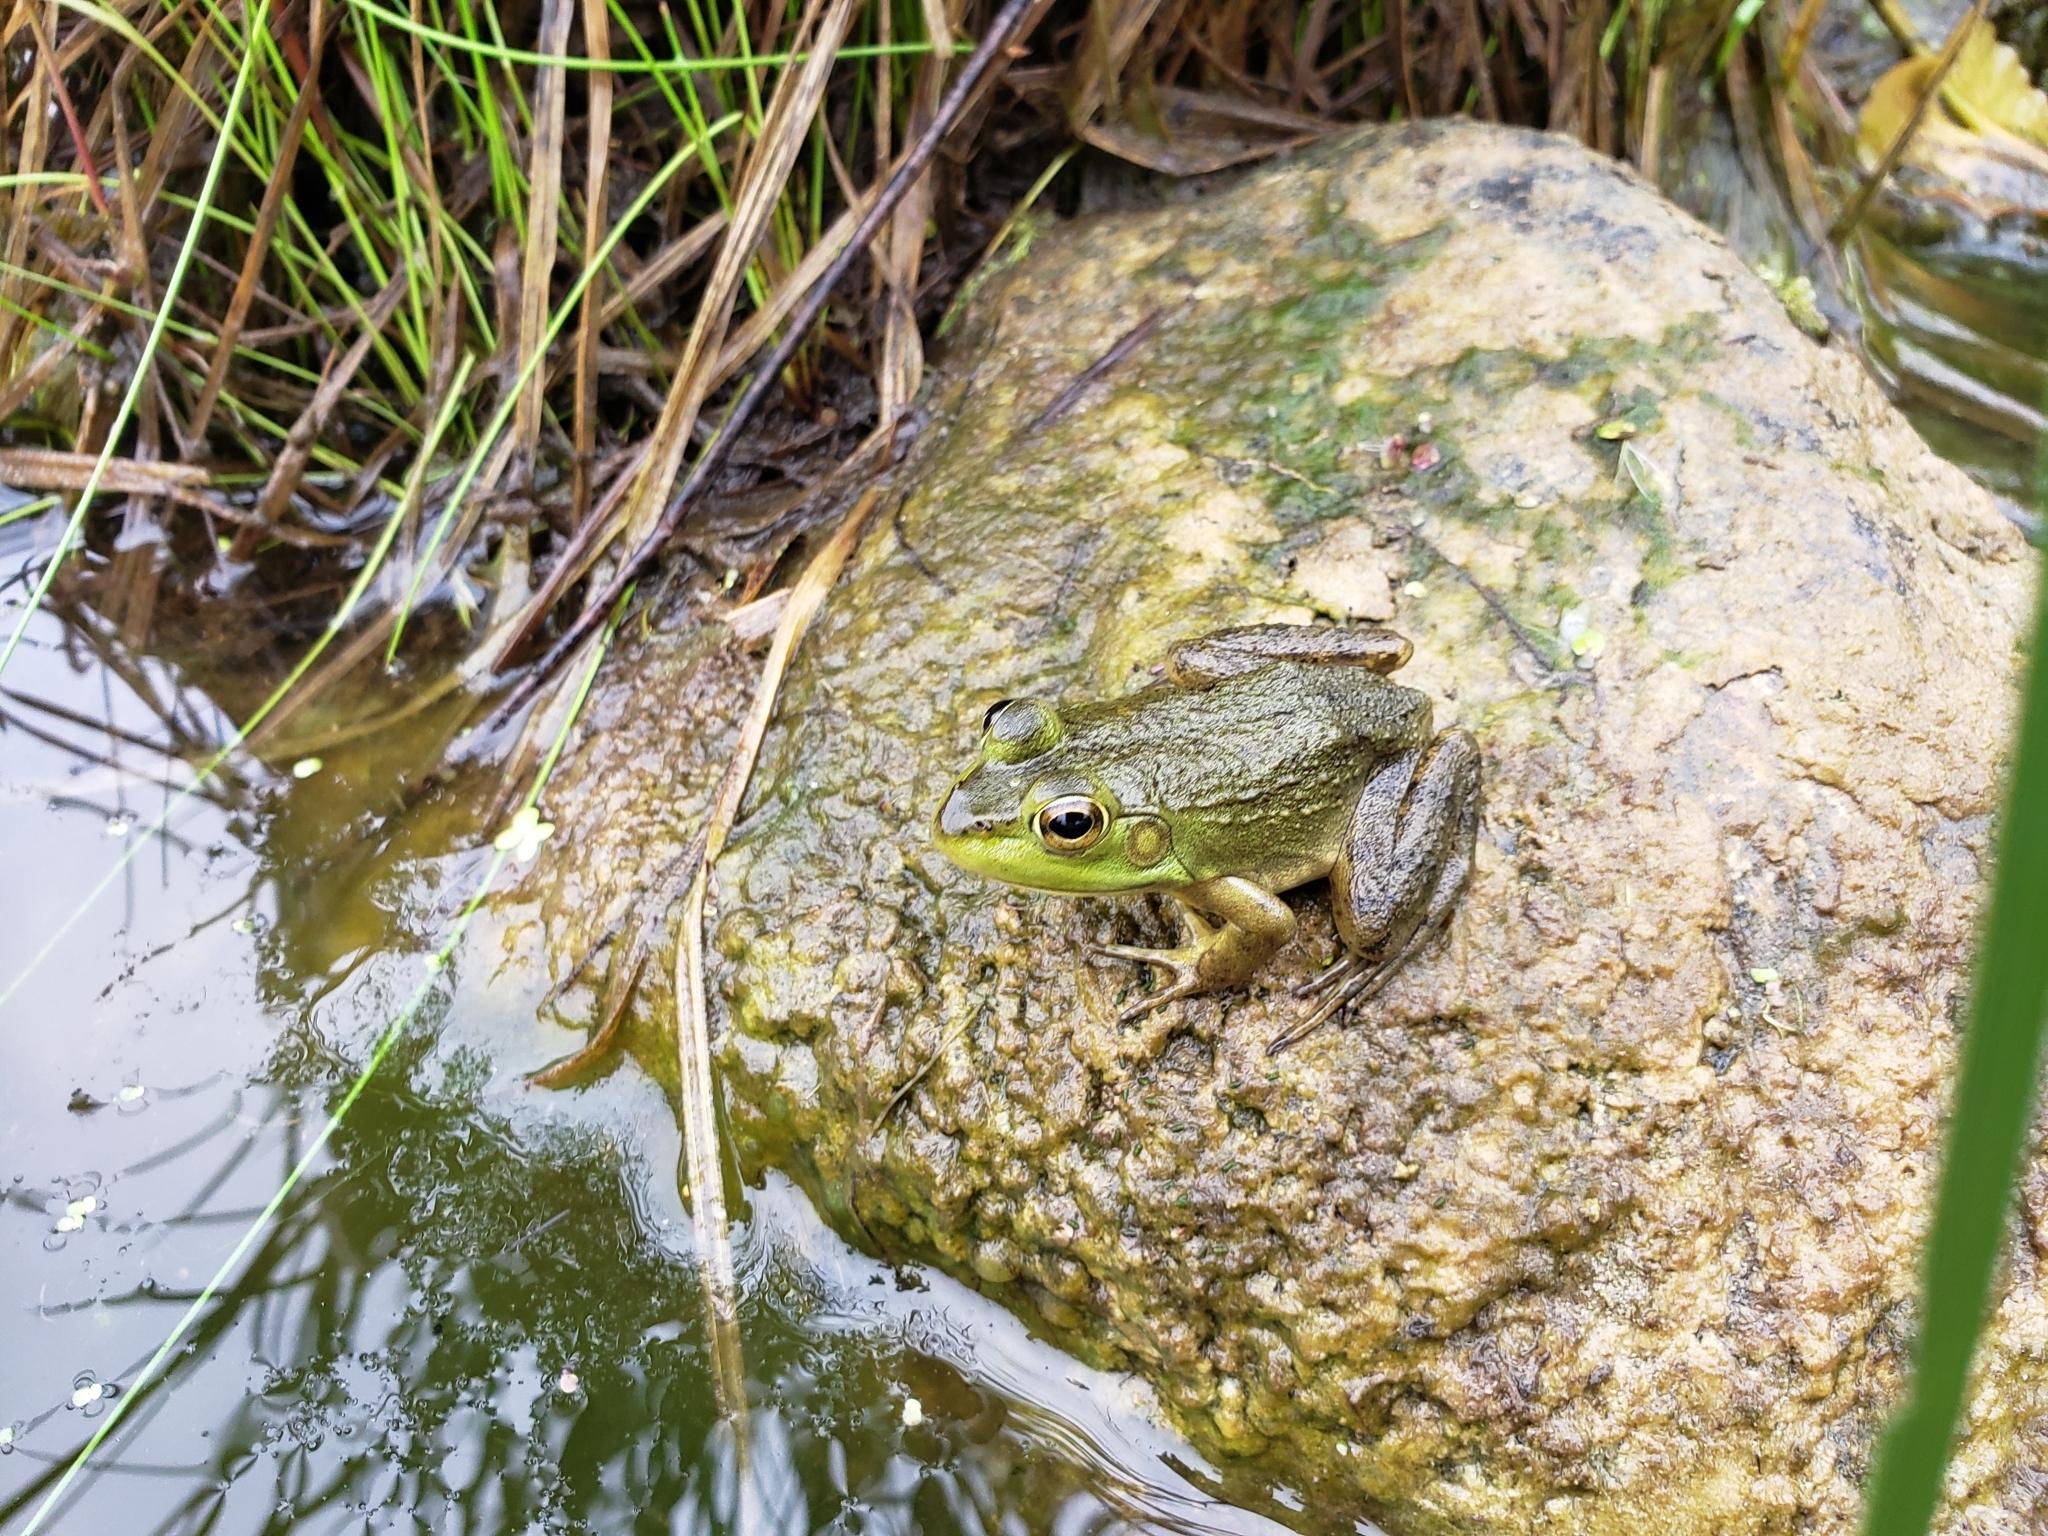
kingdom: Animalia
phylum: Chordata
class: Amphibia
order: Anura
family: Ranidae
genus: Lithobates
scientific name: Lithobates catesbeianus
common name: American bullfrog
